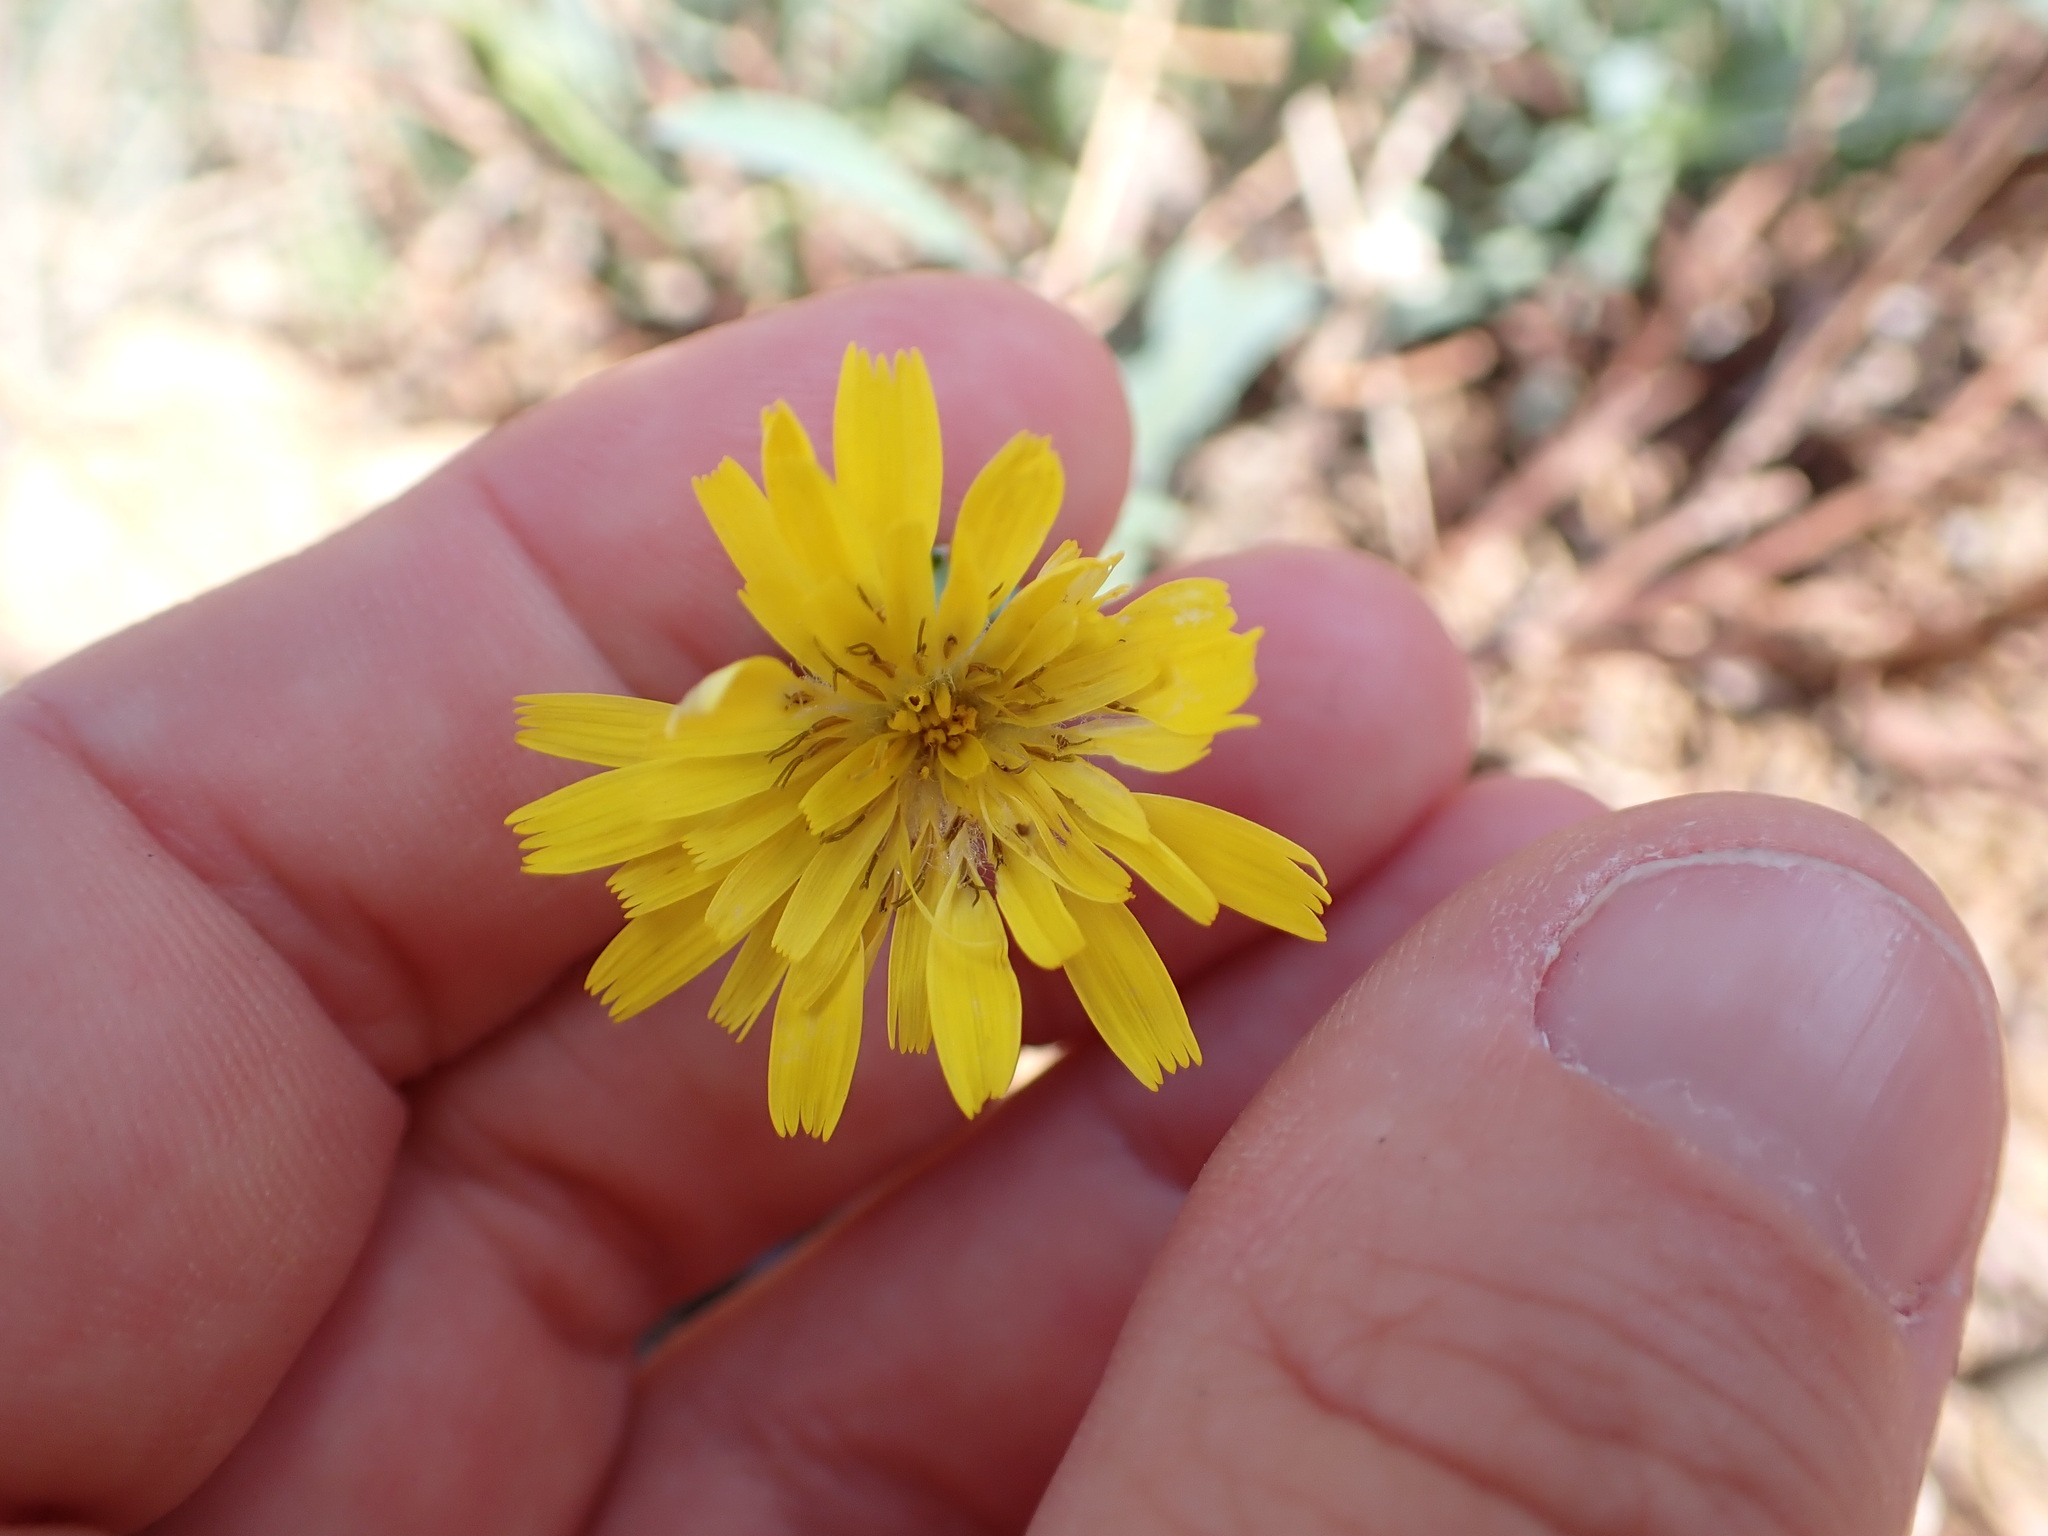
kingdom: Plantae
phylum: Tracheophyta
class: Magnoliopsida
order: Asterales
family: Asteraceae
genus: Reichardia
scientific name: Reichardia picroides
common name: Common brighteyes
